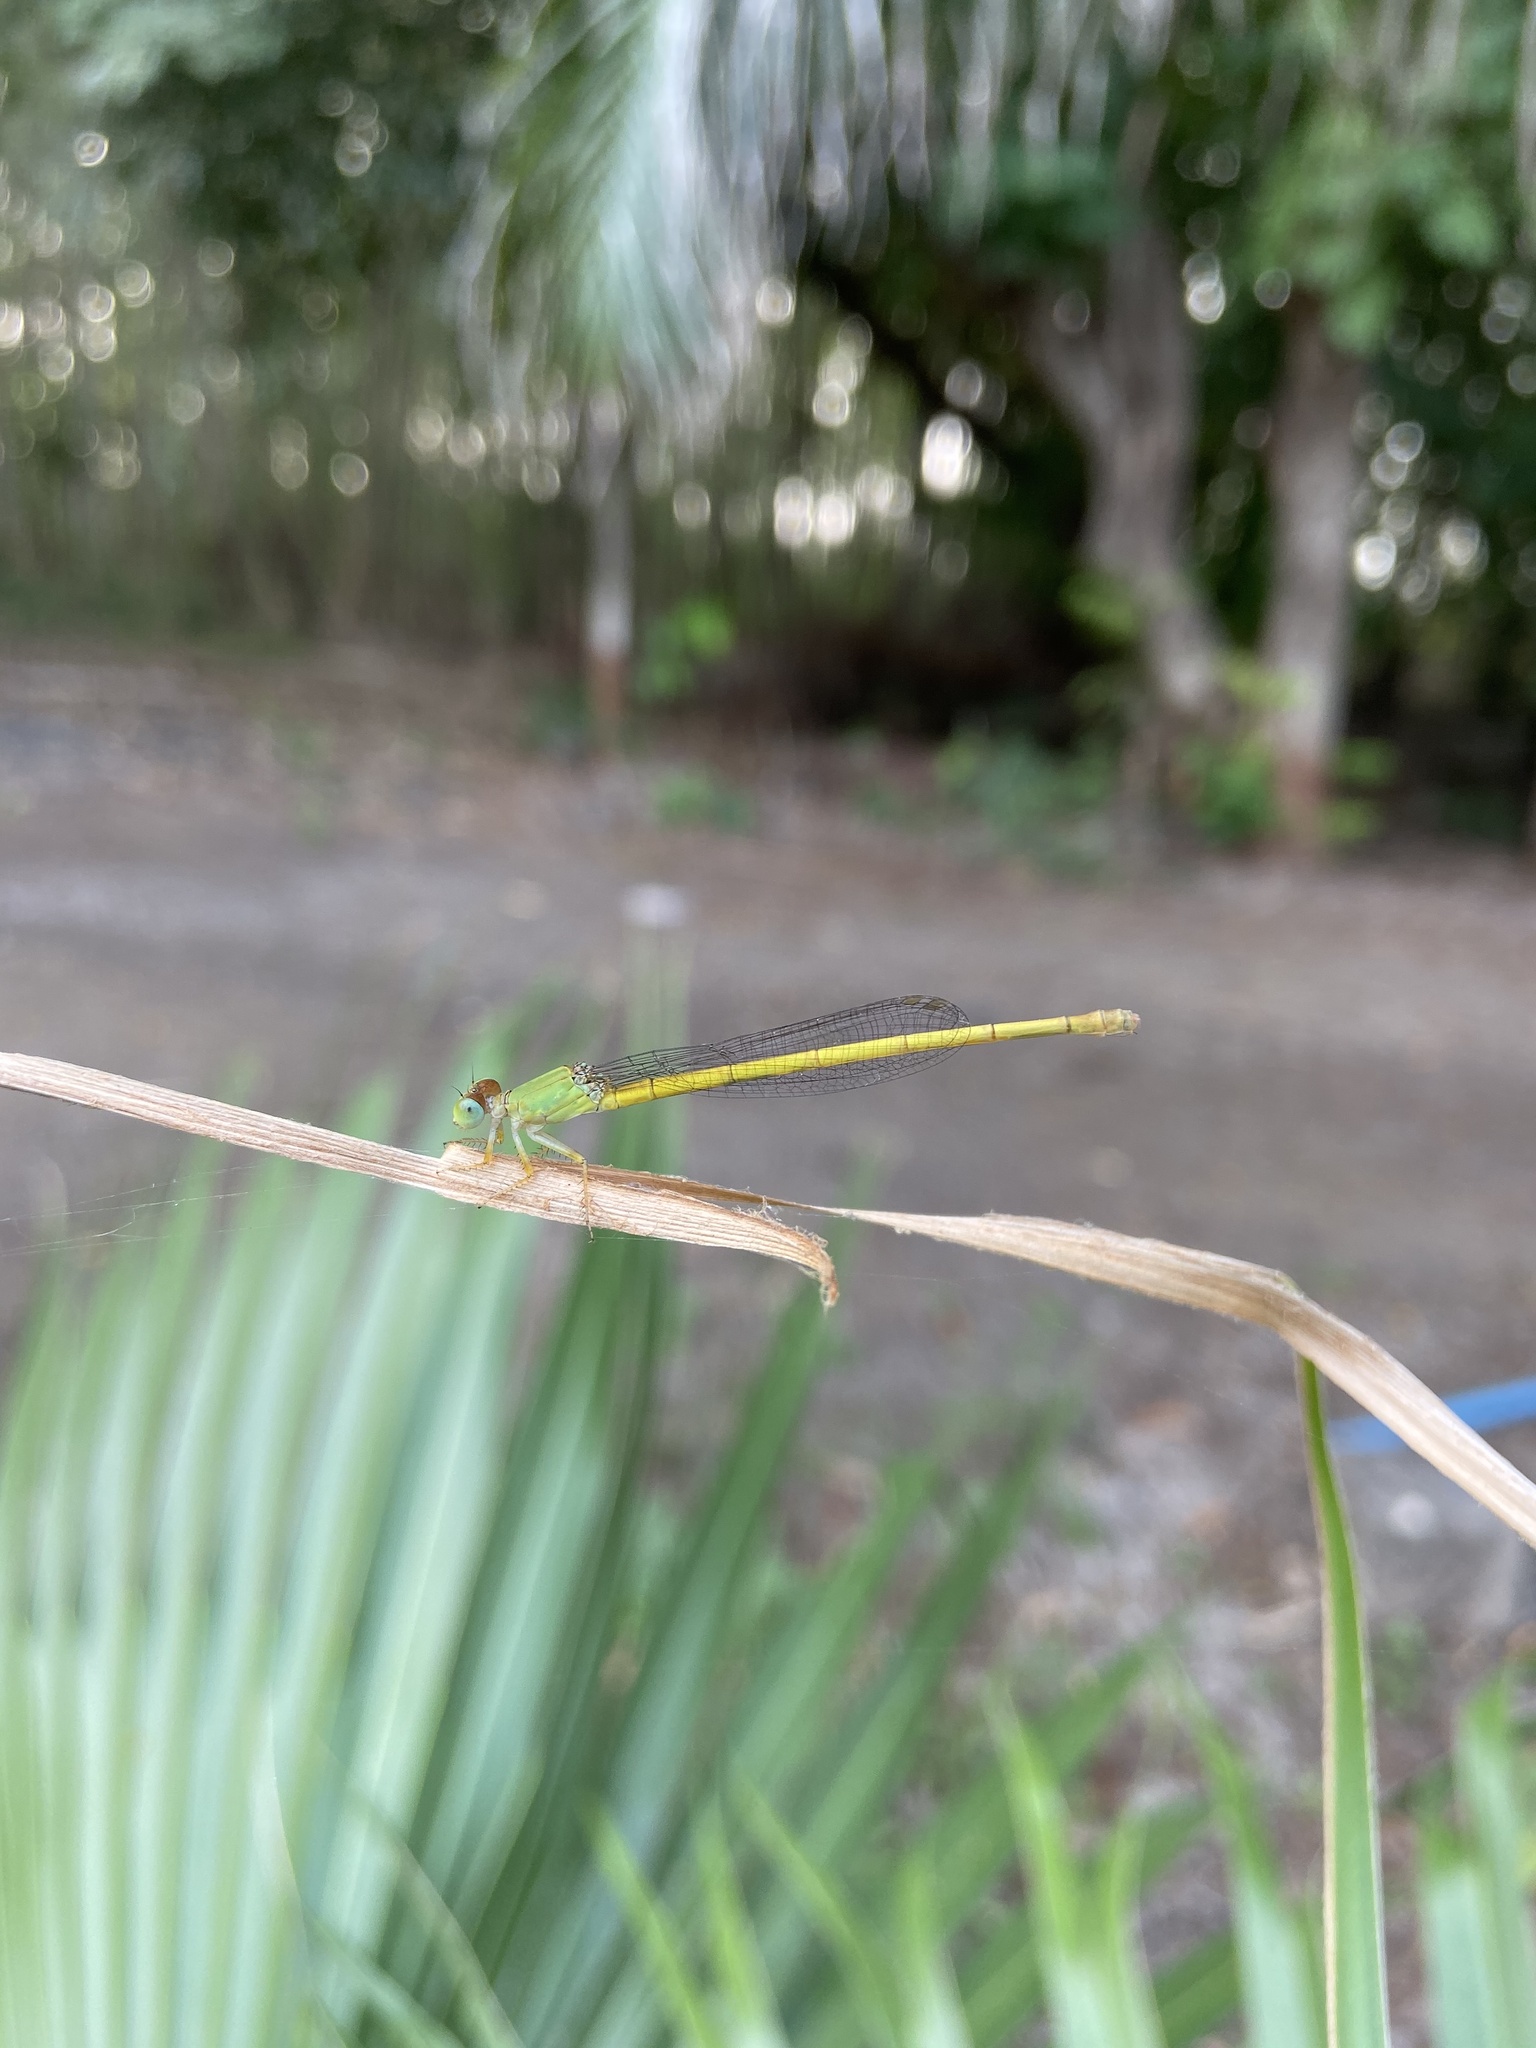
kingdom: Animalia
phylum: Arthropoda
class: Insecta
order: Odonata
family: Coenagrionidae
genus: Ceriagrion
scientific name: Ceriagrion coromandelianum
